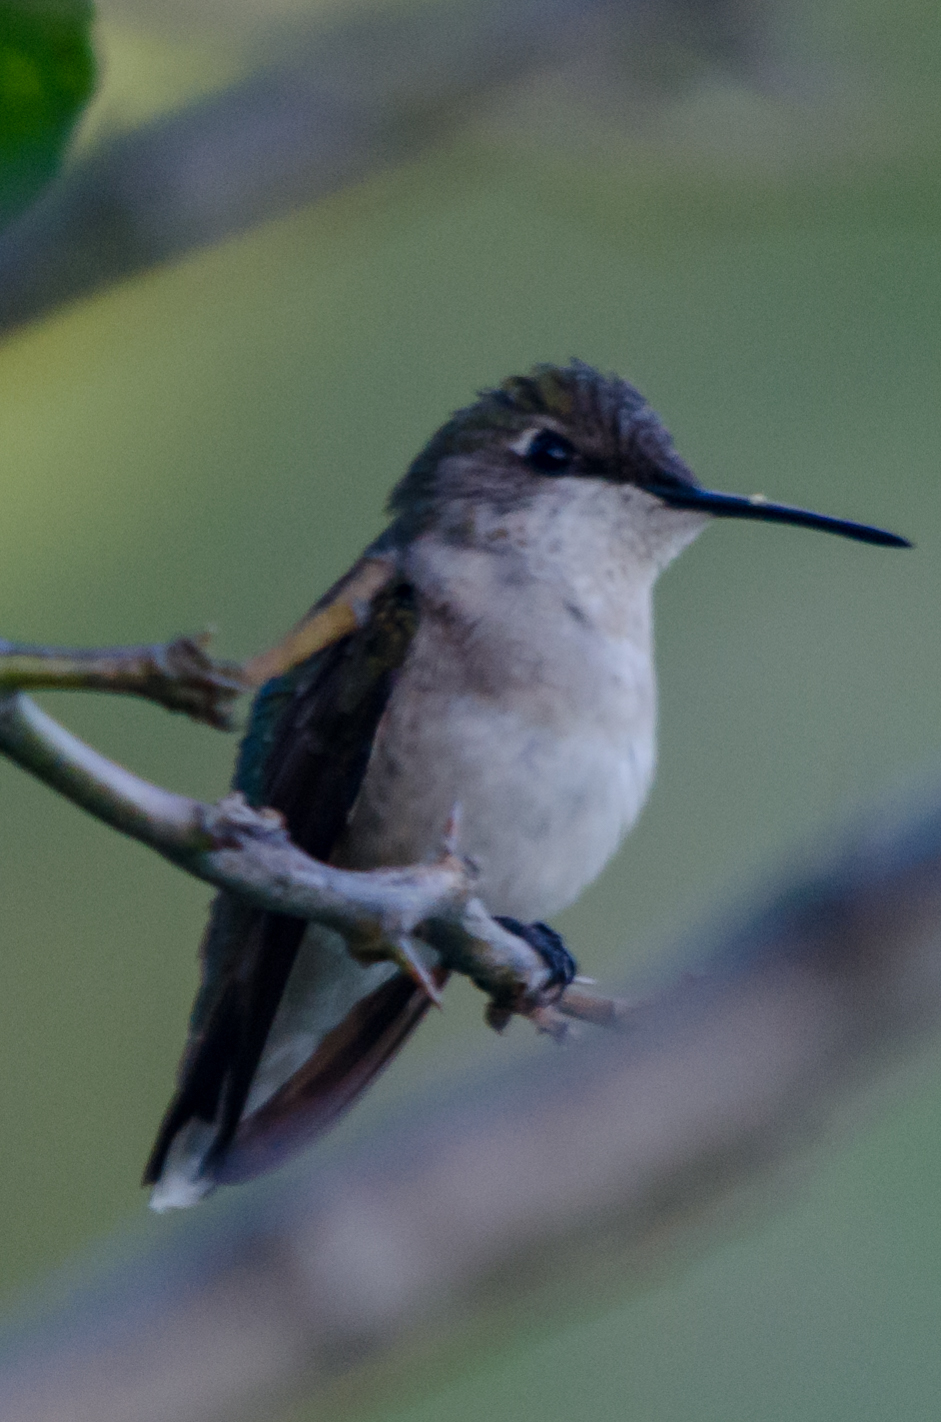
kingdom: Animalia
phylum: Chordata
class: Aves
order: Apodiformes
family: Trochilidae
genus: Archilochus
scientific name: Archilochus colubris
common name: Ruby-throated hummingbird
